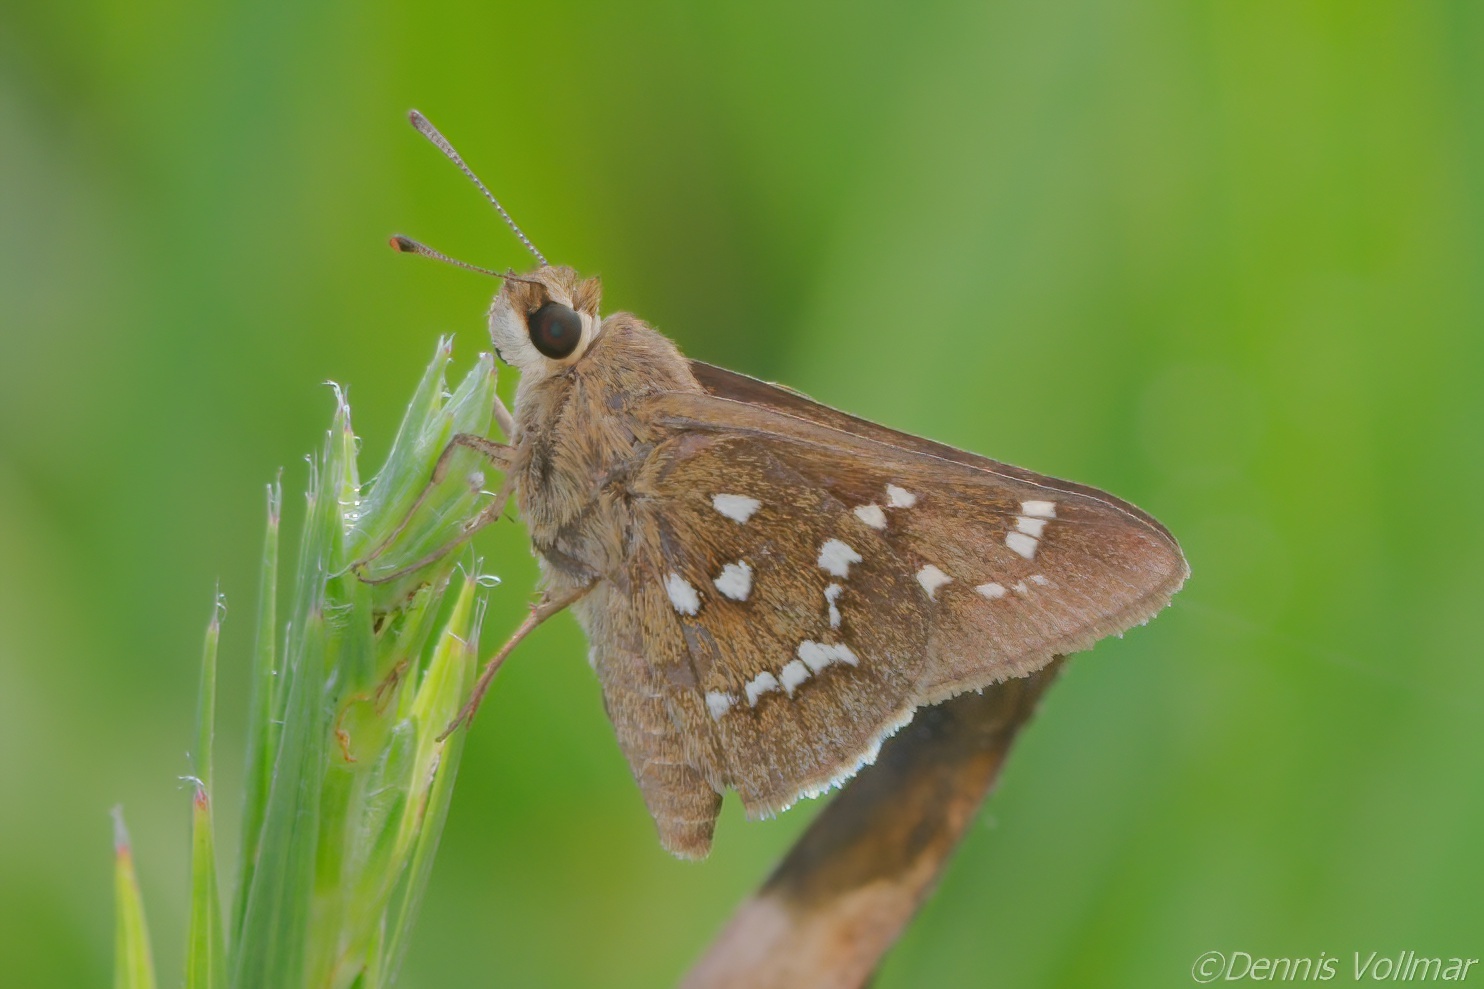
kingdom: Animalia
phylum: Arthropoda
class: Insecta
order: Lepidoptera
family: Hesperiidae
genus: Atrytonopsis
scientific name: Atrytonopsis loammi
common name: Loammi skipper
